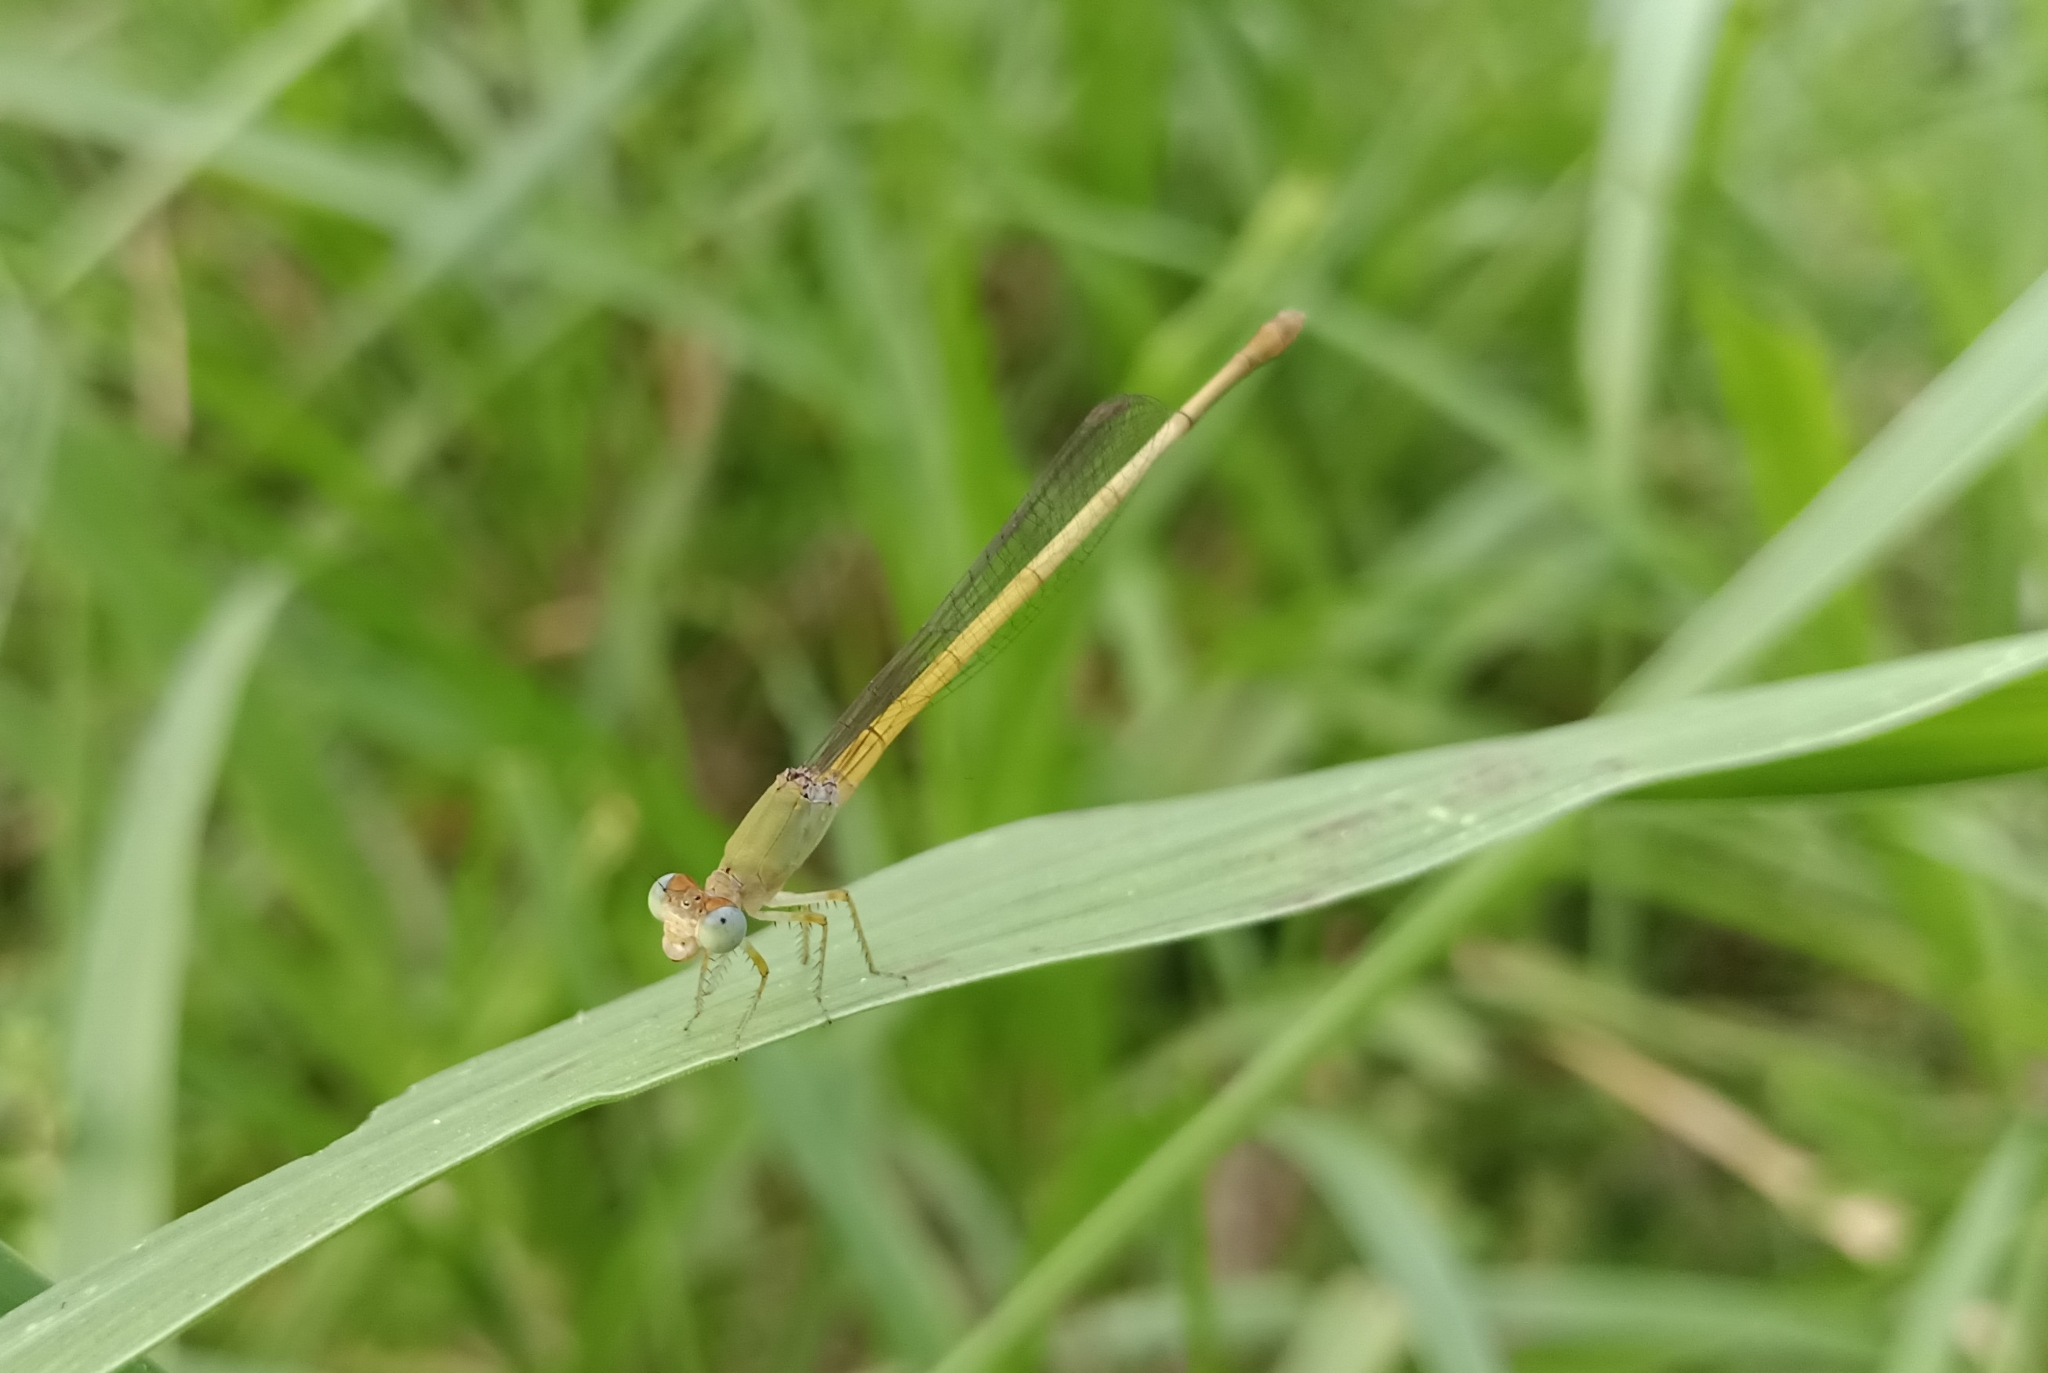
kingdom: Animalia
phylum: Arthropoda
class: Insecta
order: Odonata
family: Coenagrionidae
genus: Ceriagrion
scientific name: Ceriagrion coromandelianum
